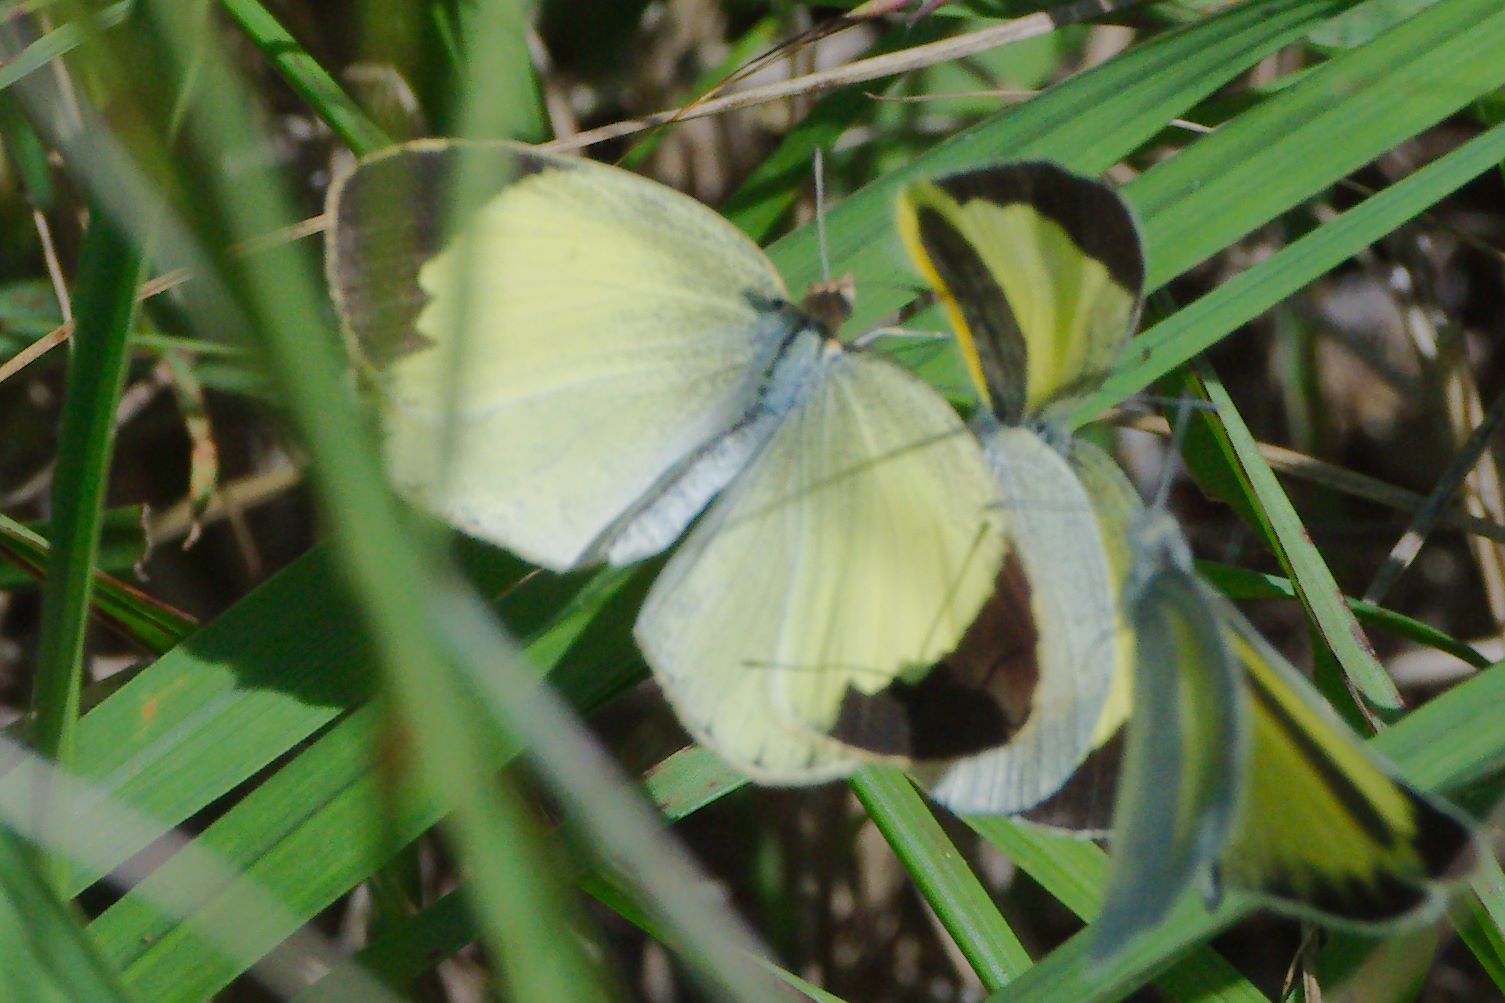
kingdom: Animalia
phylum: Arthropoda
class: Insecta
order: Lepidoptera
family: Pieridae
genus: Eurema
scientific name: Eurema daira
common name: Barred sulphur
